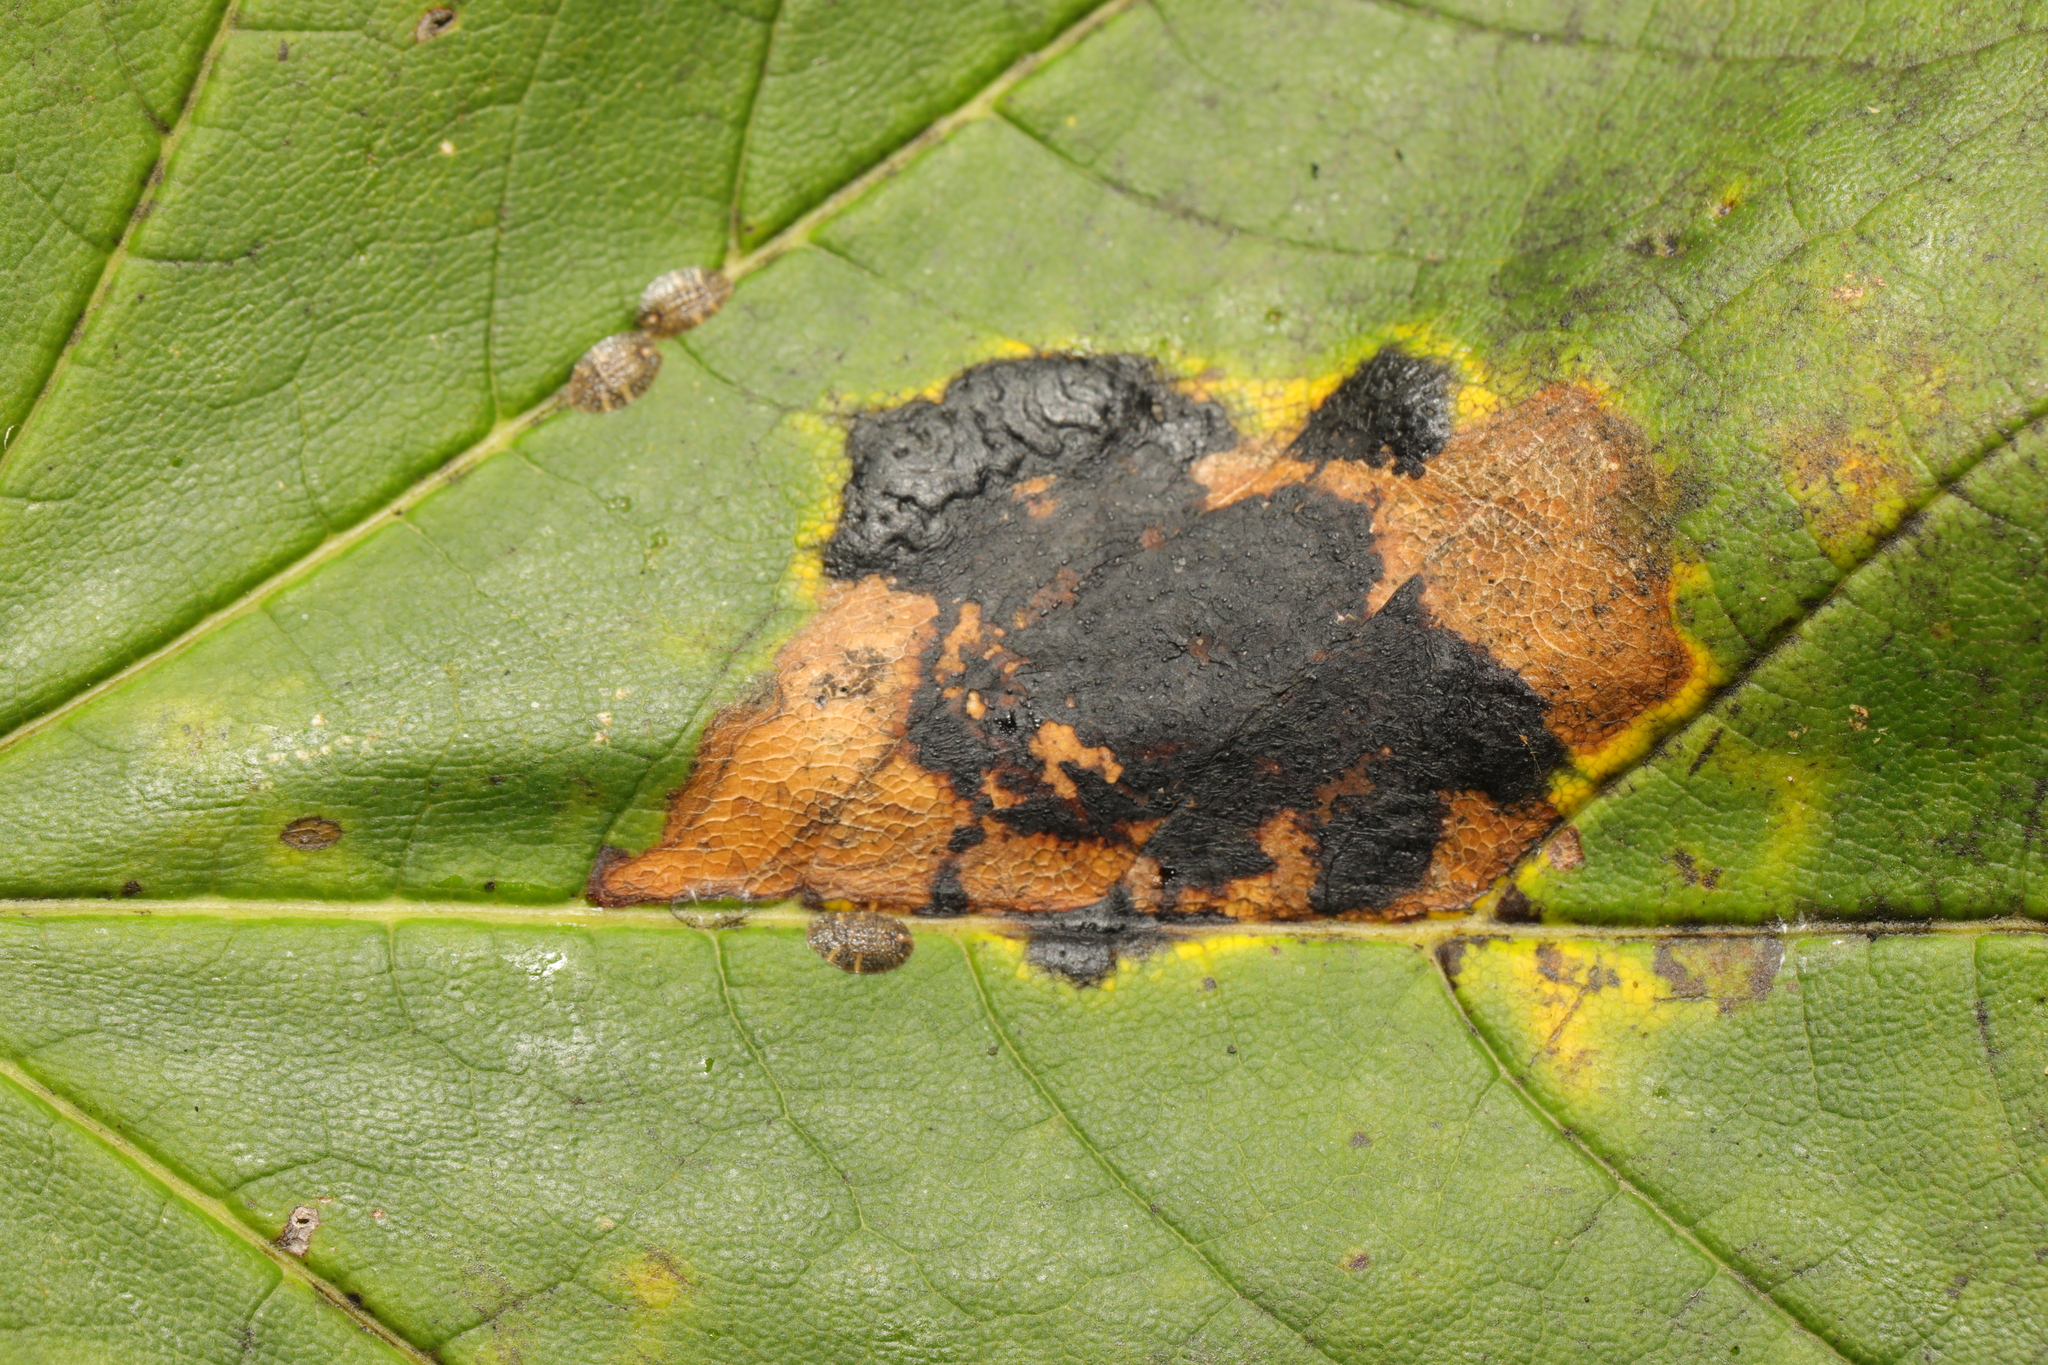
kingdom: Fungi
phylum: Ascomycota
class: Leotiomycetes
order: Rhytismatales
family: Rhytismataceae
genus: Rhytisma
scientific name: Rhytisma acerinum
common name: European tar spot
